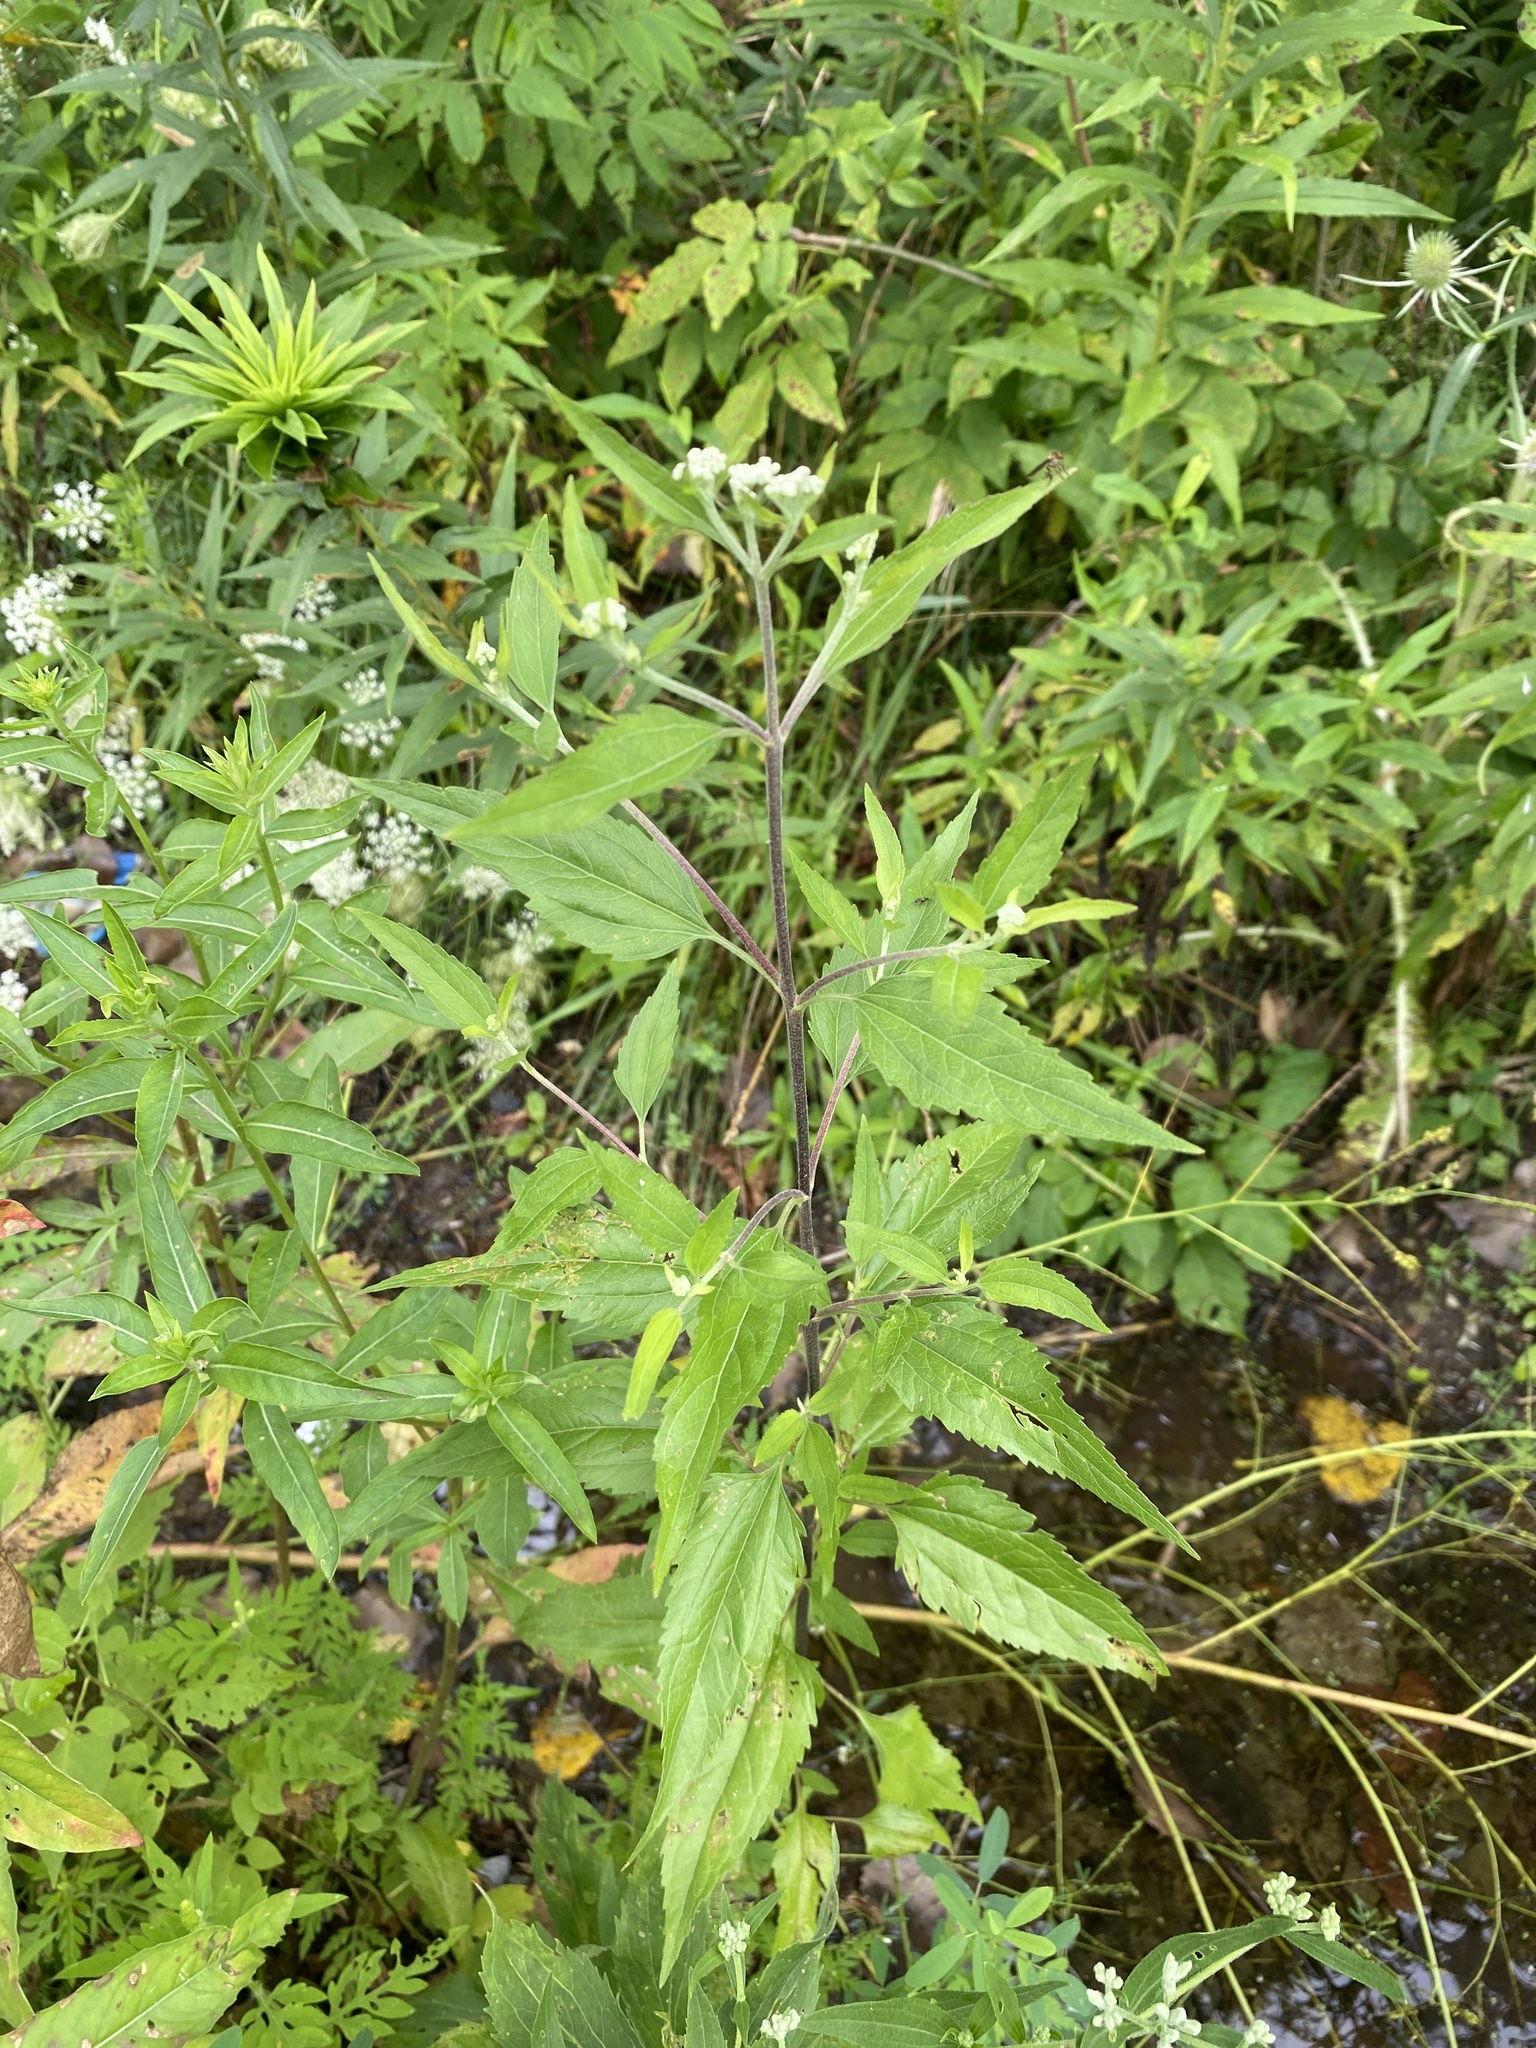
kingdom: Plantae
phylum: Tracheophyta
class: Magnoliopsida
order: Asterales
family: Asteraceae
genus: Eupatorium
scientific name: Eupatorium serotinum
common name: Late boneset
